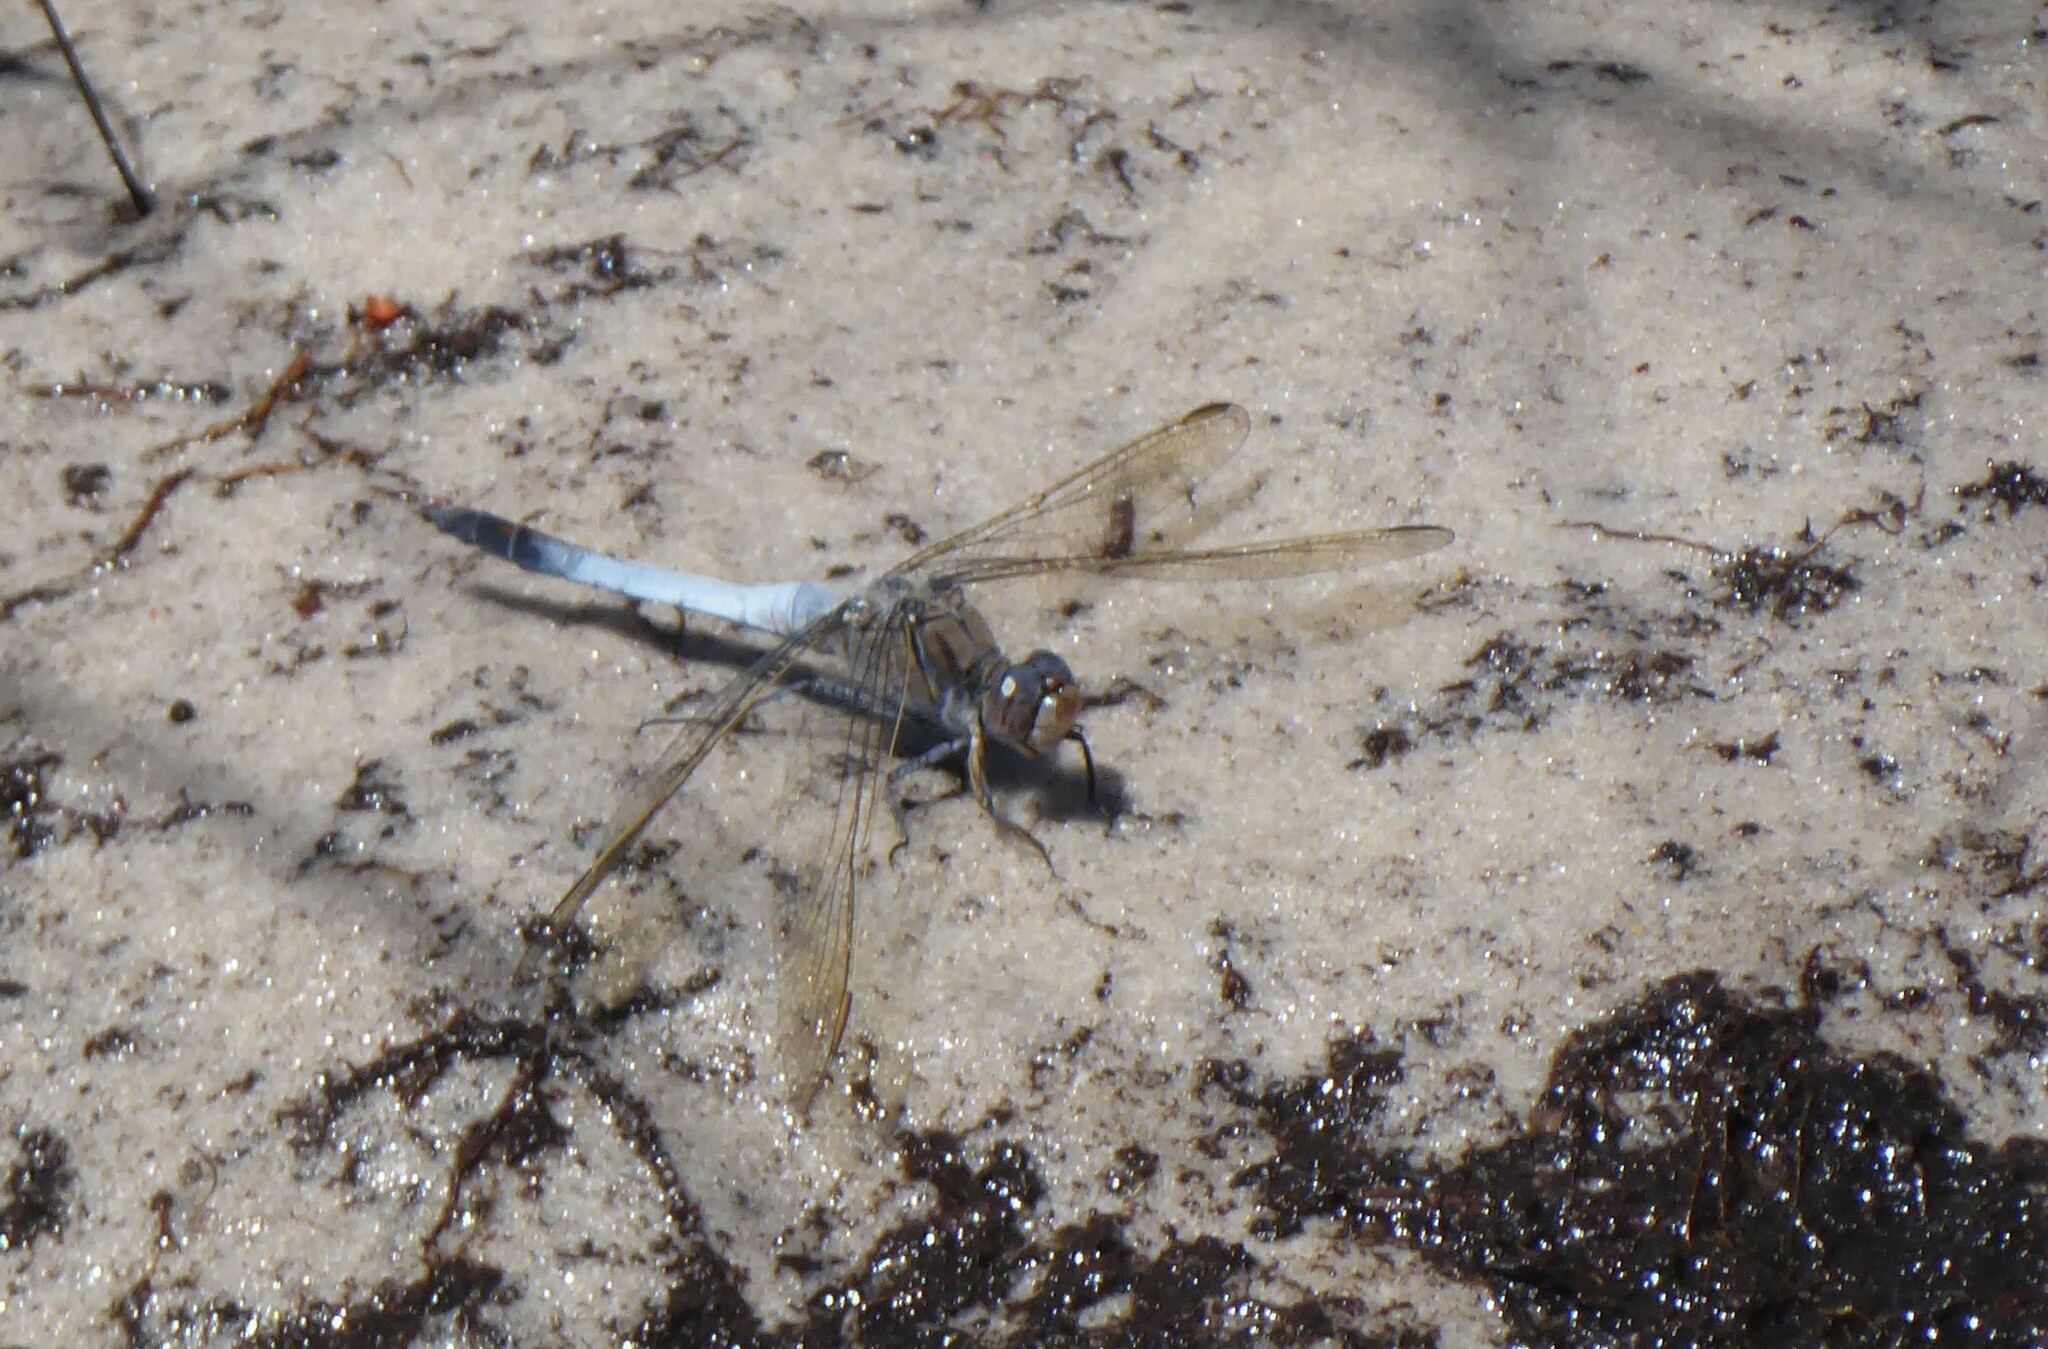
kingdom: Animalia
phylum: Arthropoda
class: Insecta
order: Odonata
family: Libellulidae
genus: Orthetrum
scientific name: Orthetrum caledonicum
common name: Blue skimmer
